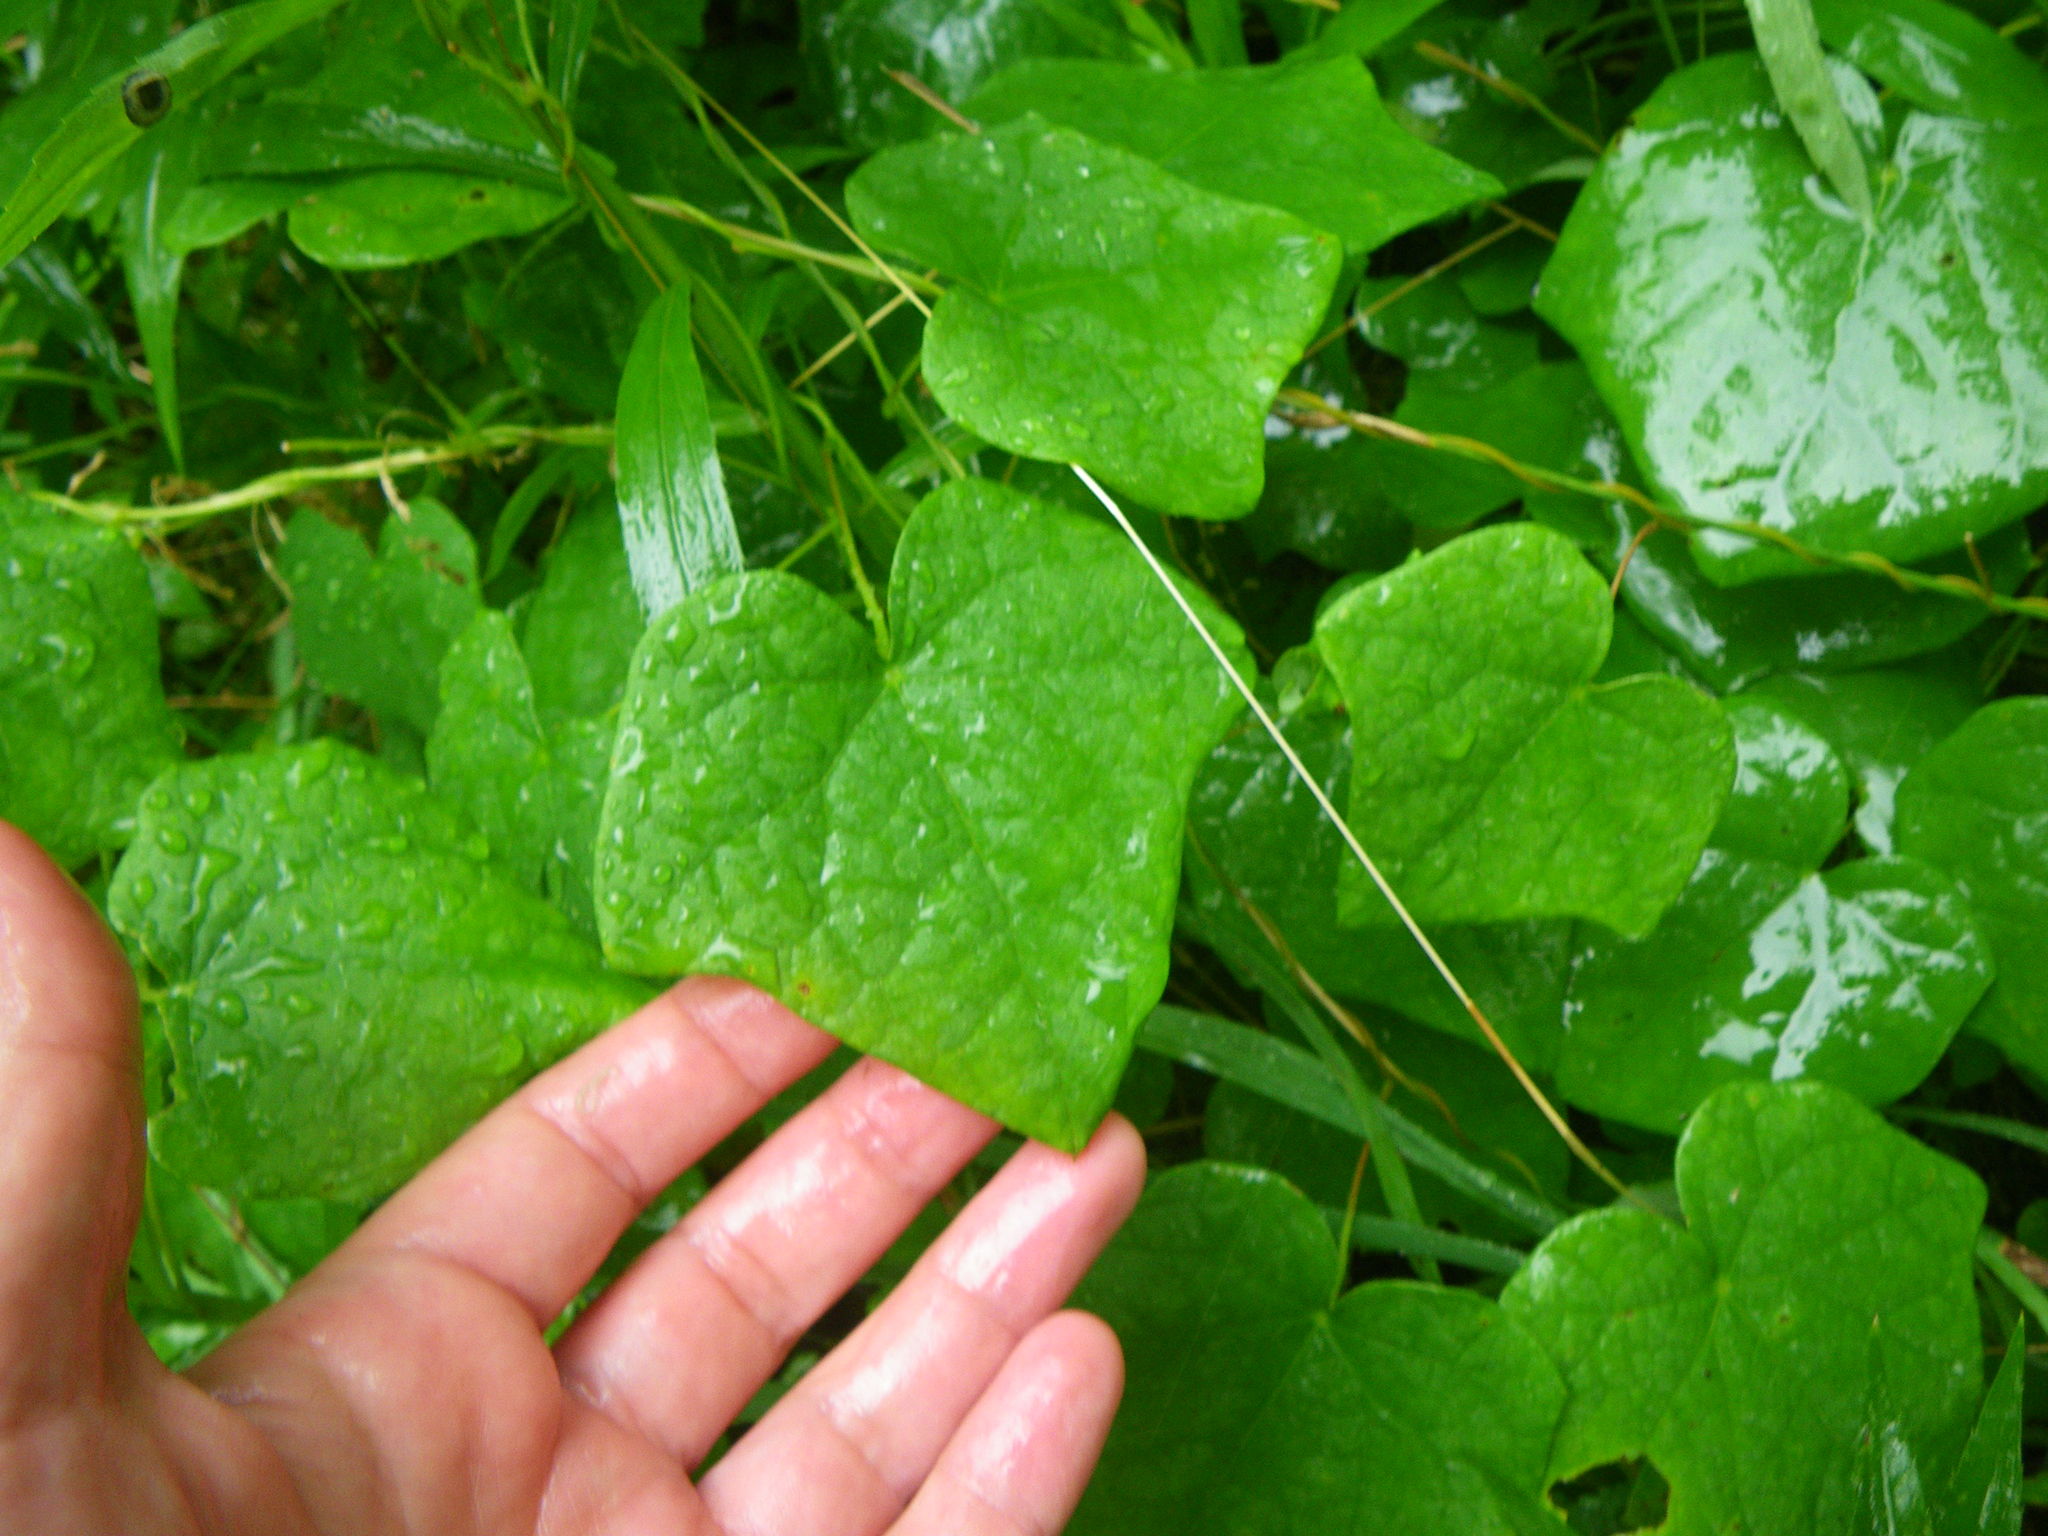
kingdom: Plantae
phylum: Tracheophyta
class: Magnoliopsida
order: Ranunculales
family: Menispermaceae
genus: Menispermum
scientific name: Menispermum canadense
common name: Moonseed
